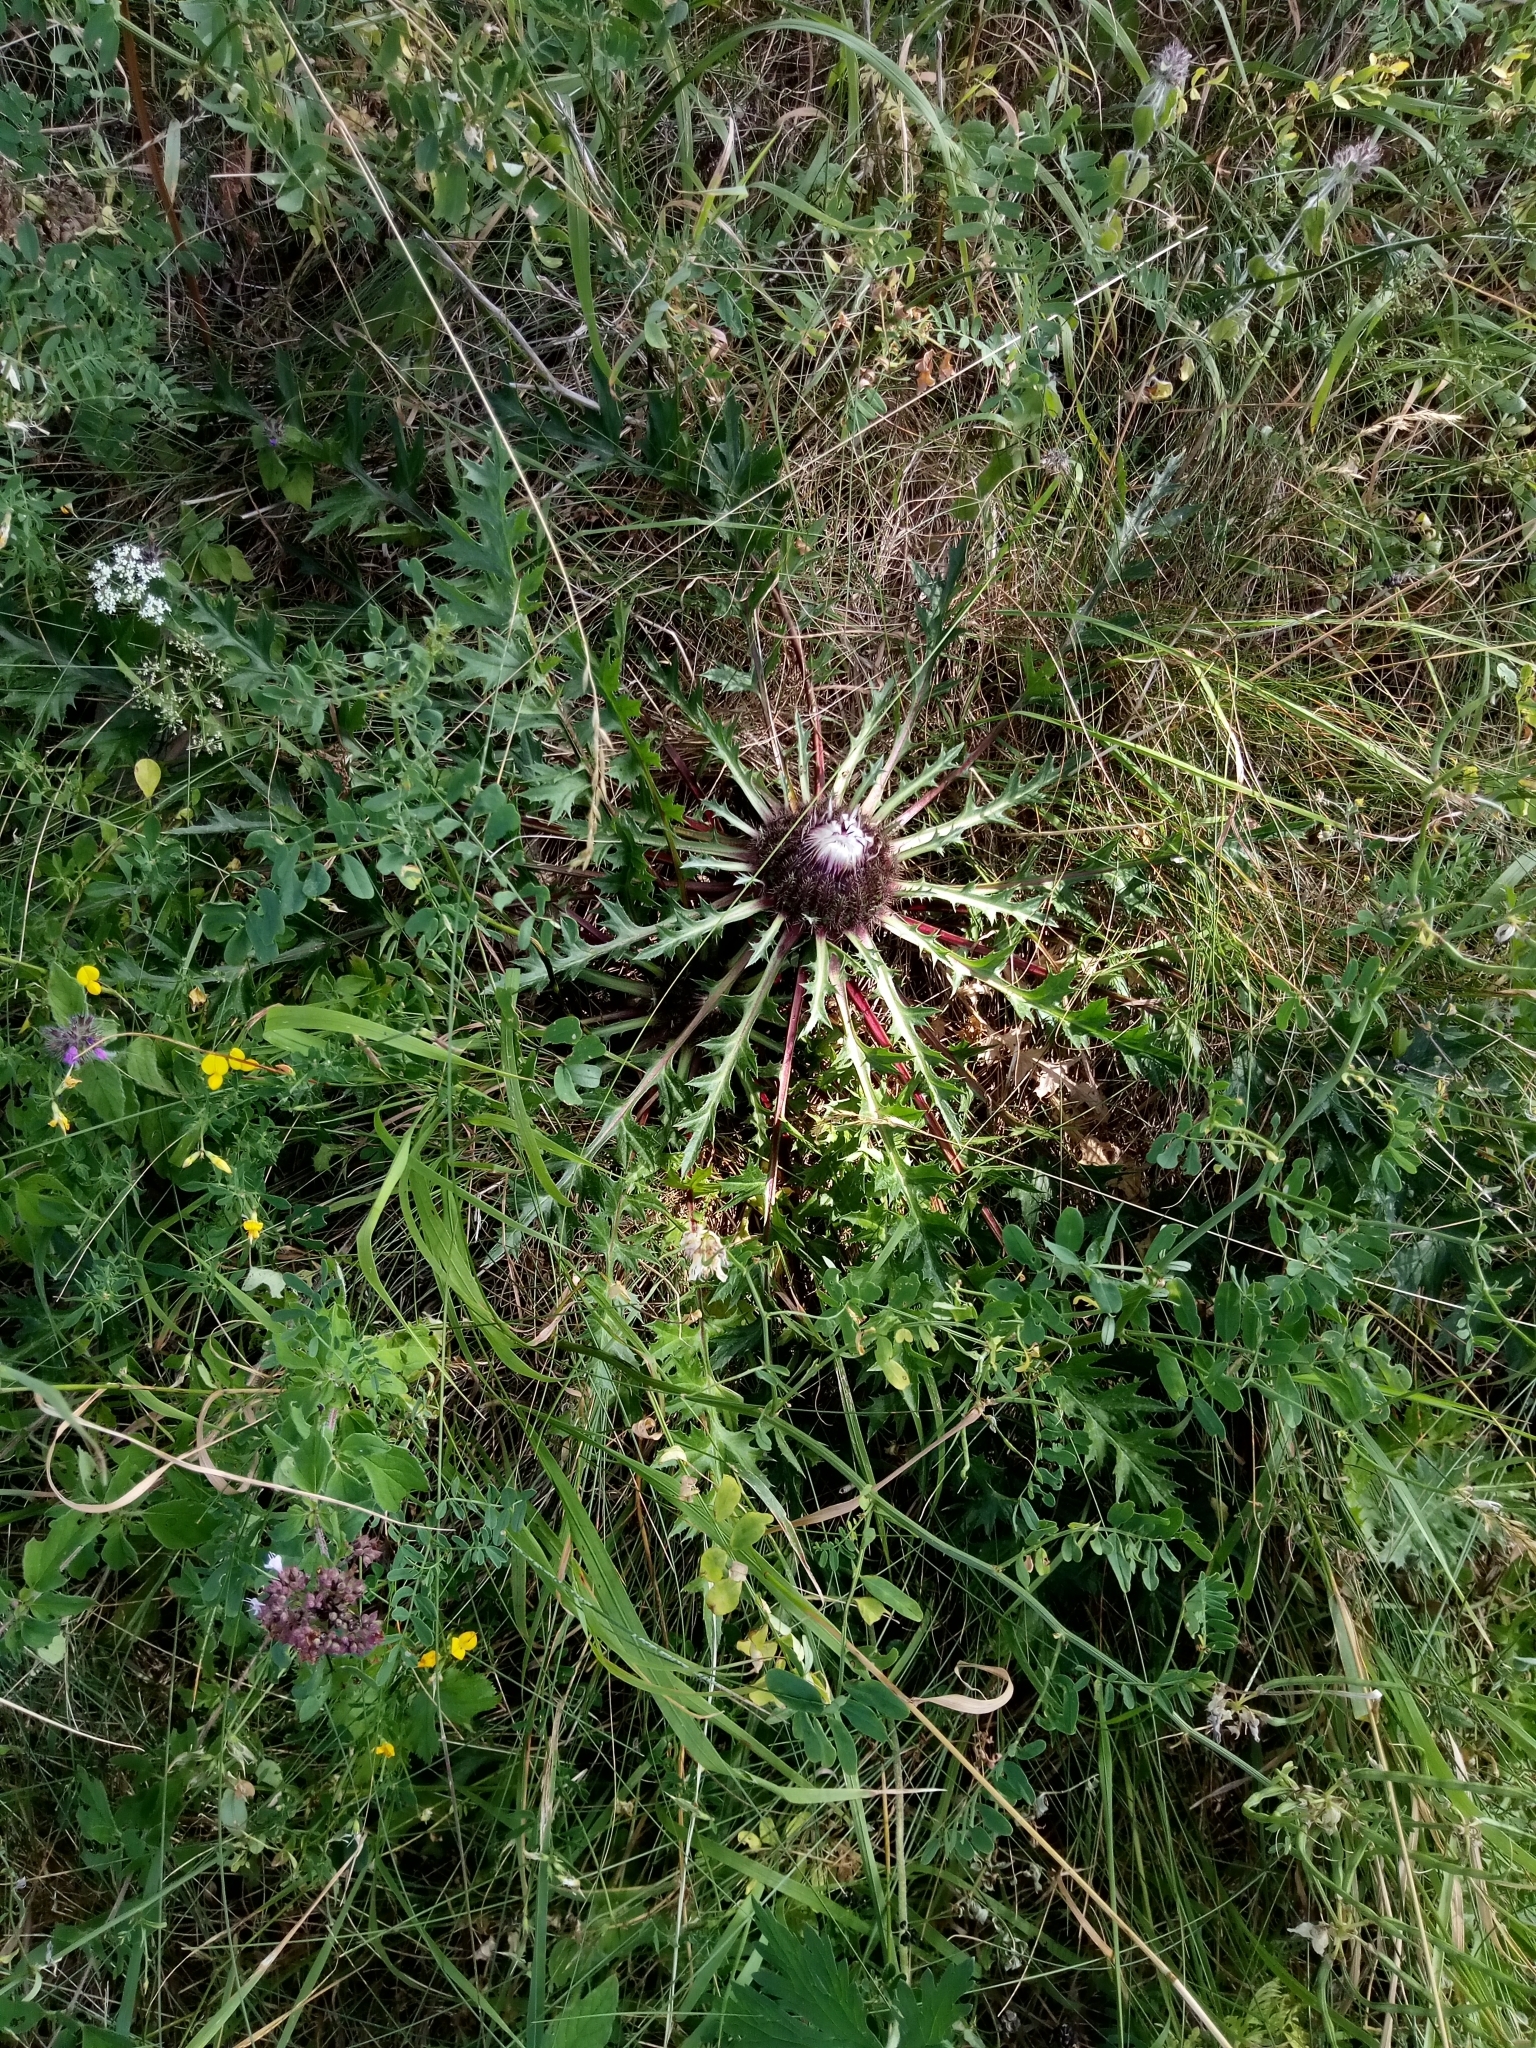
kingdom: Plantae
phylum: Tracheophyta
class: Magnoliopsida
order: Asterales
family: Asteraceae
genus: Carlina
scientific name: Carlina acaulis
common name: Stemless carline thistle
